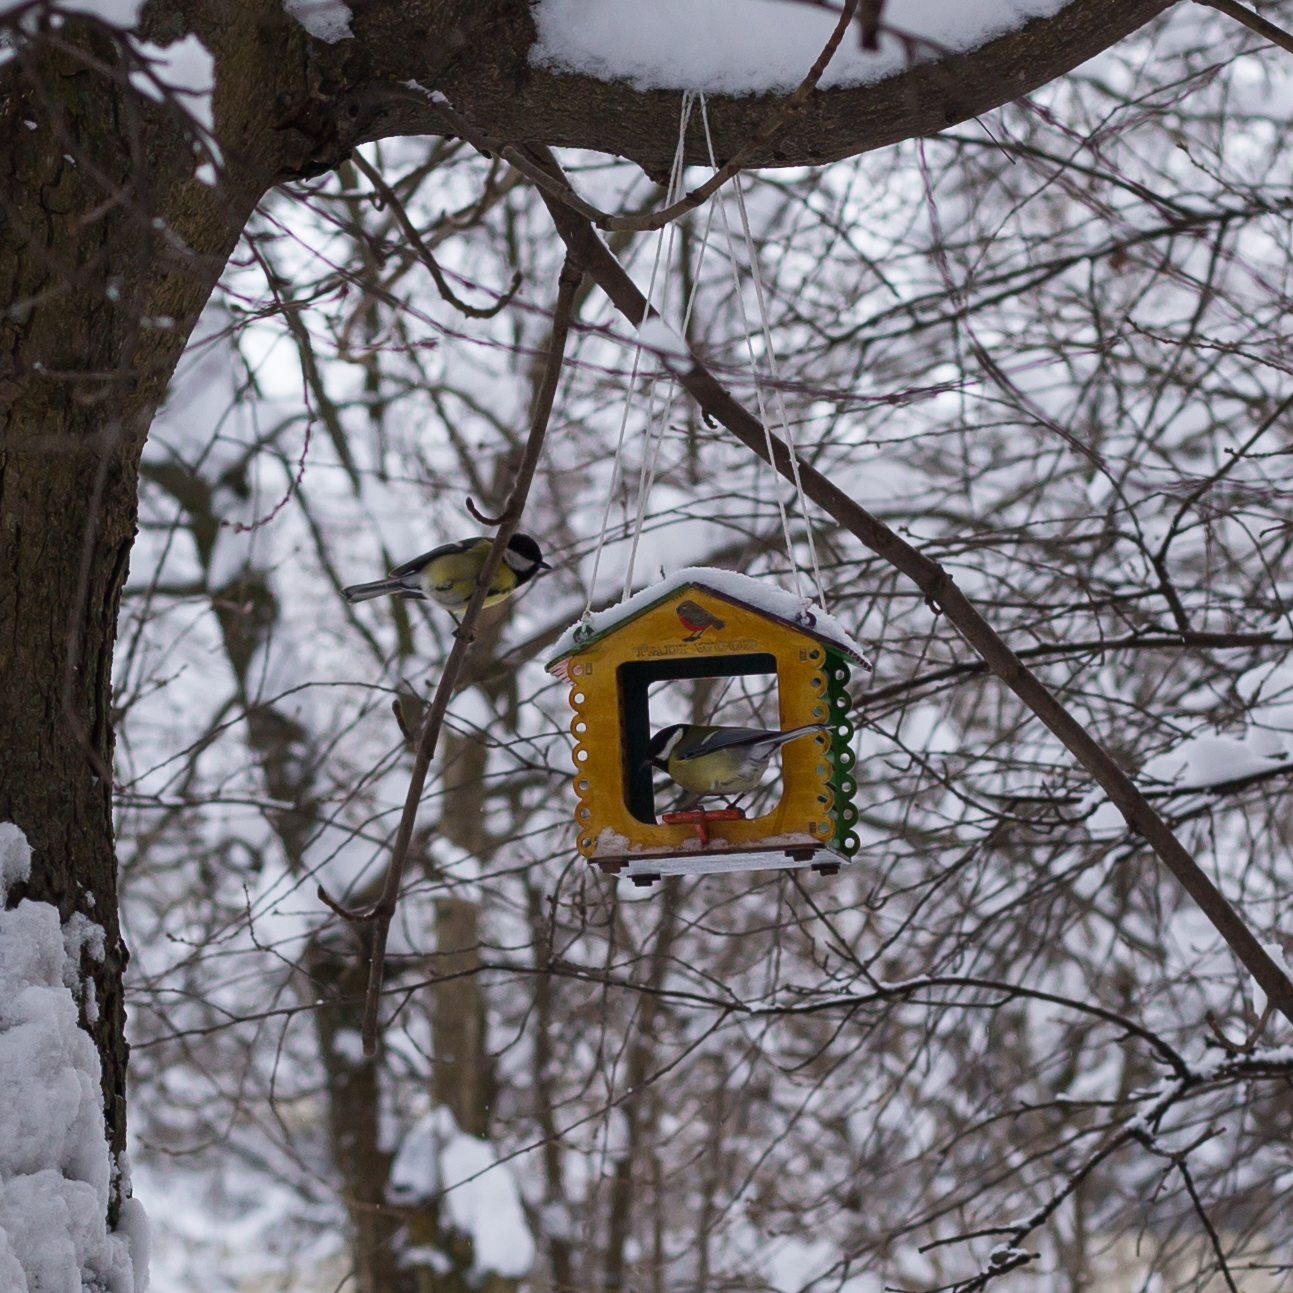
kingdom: Animalia
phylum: Chordata
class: Aves
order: Passeriformes
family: Paridae
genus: Parus
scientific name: Parus major
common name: Great tit
